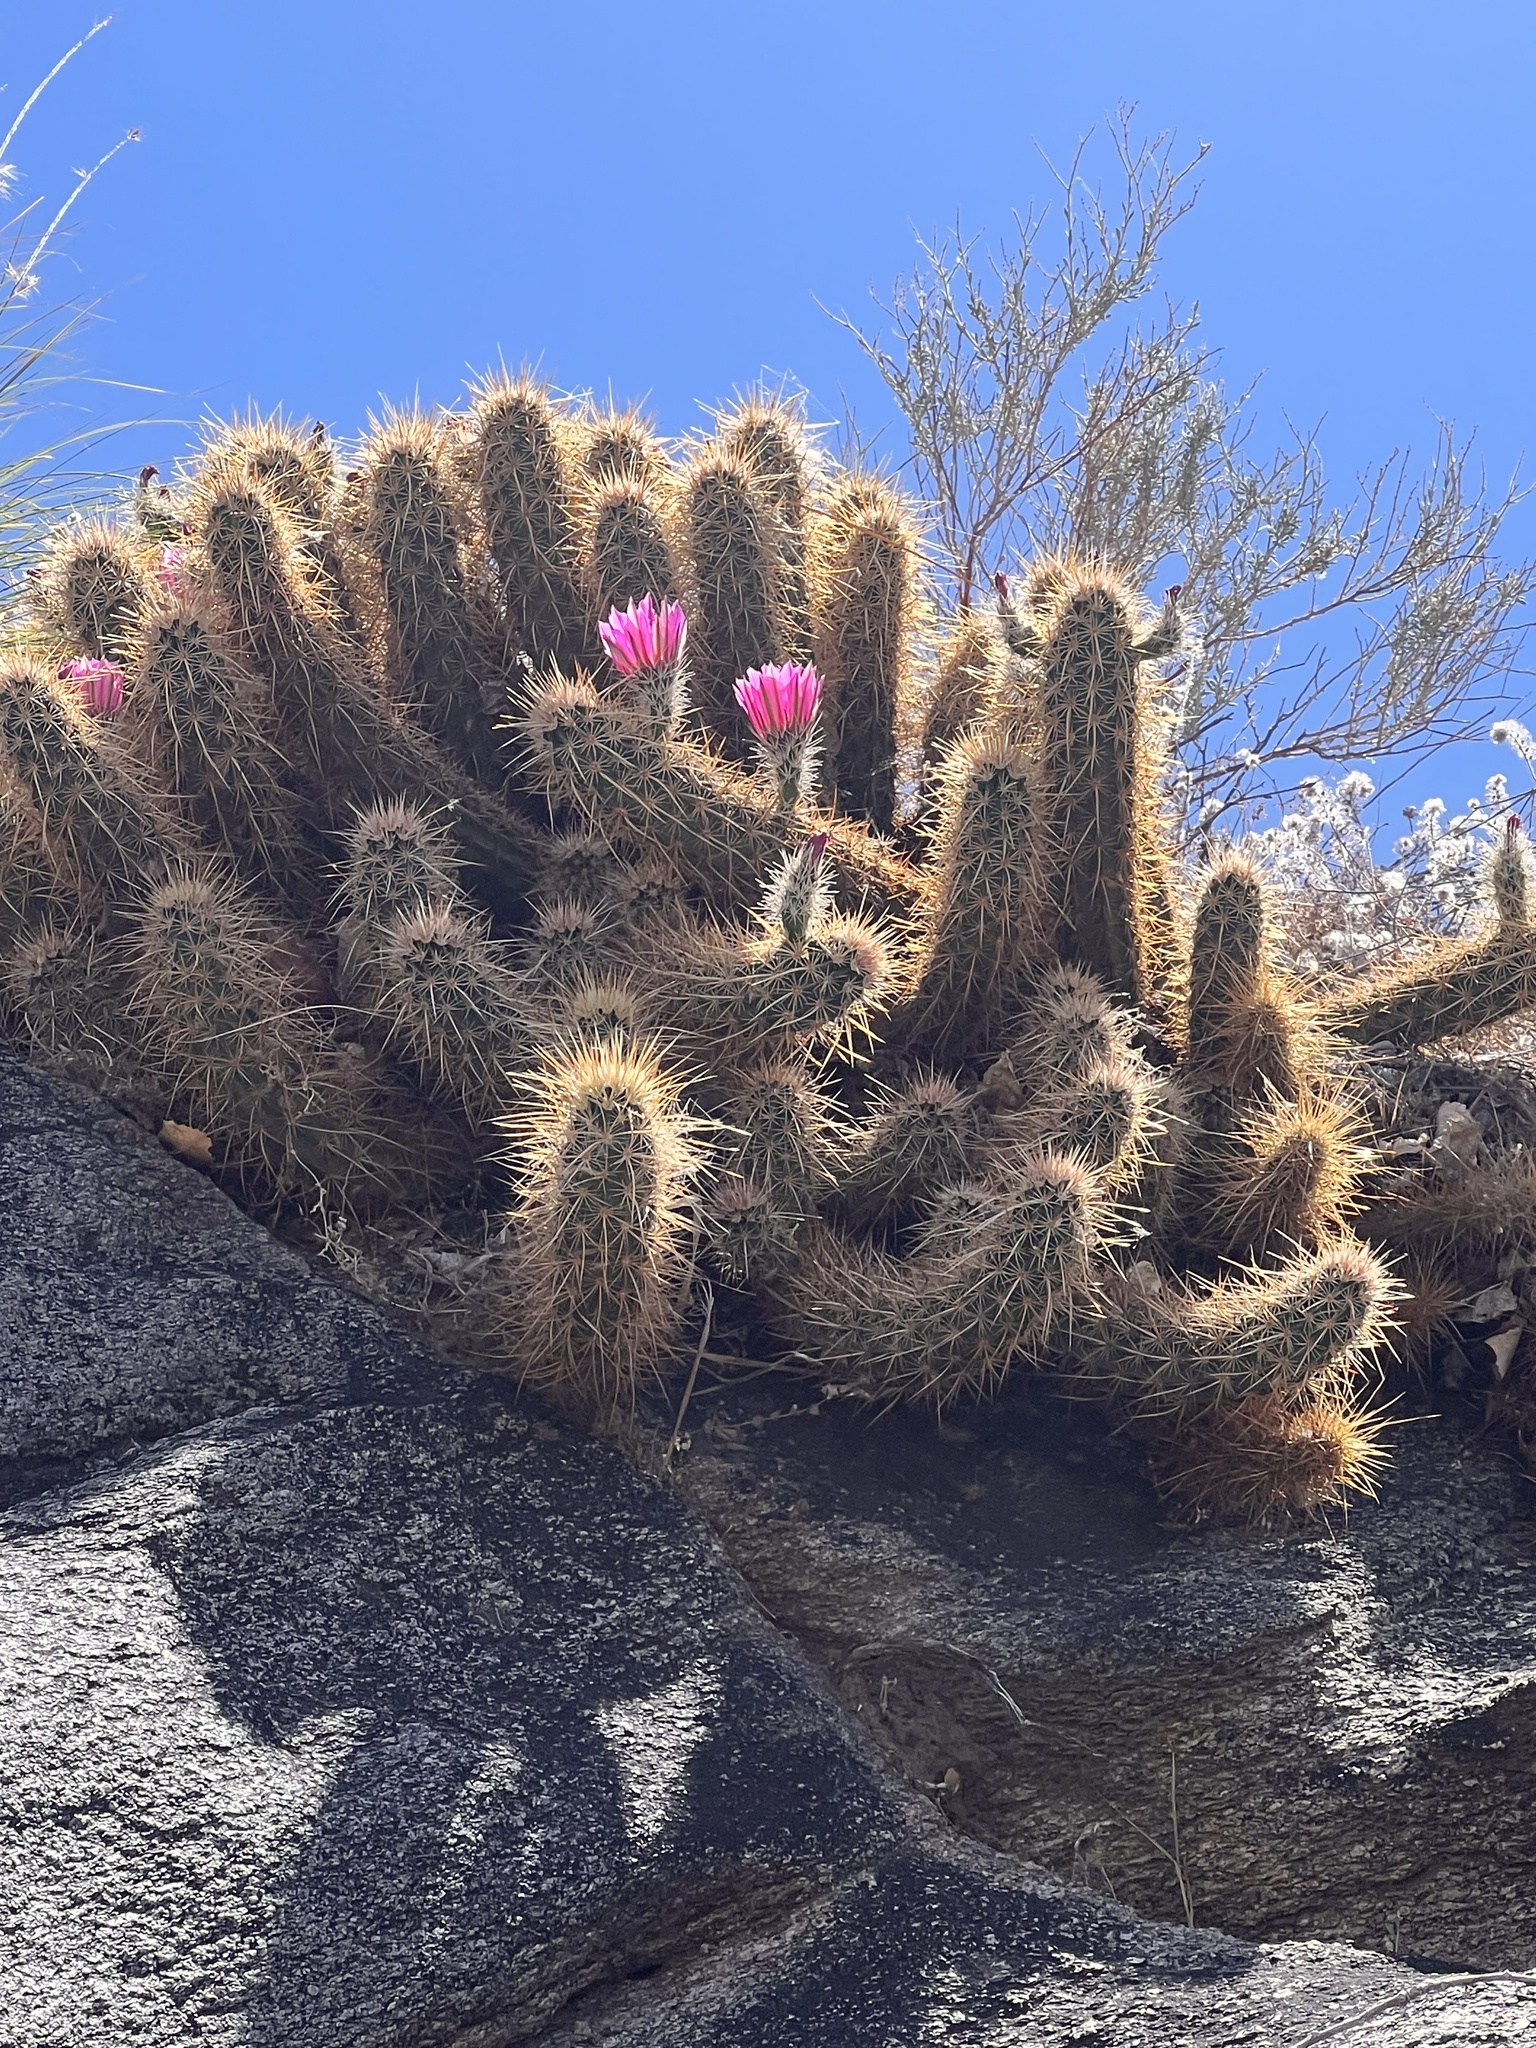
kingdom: Plantae
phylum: Tracheophyta
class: Magnoliopsida
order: Caryophyllales
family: Cactaceae
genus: Echinocereus
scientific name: Echinocereus engelmannii
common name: Engelmann's hedgehog cactus
